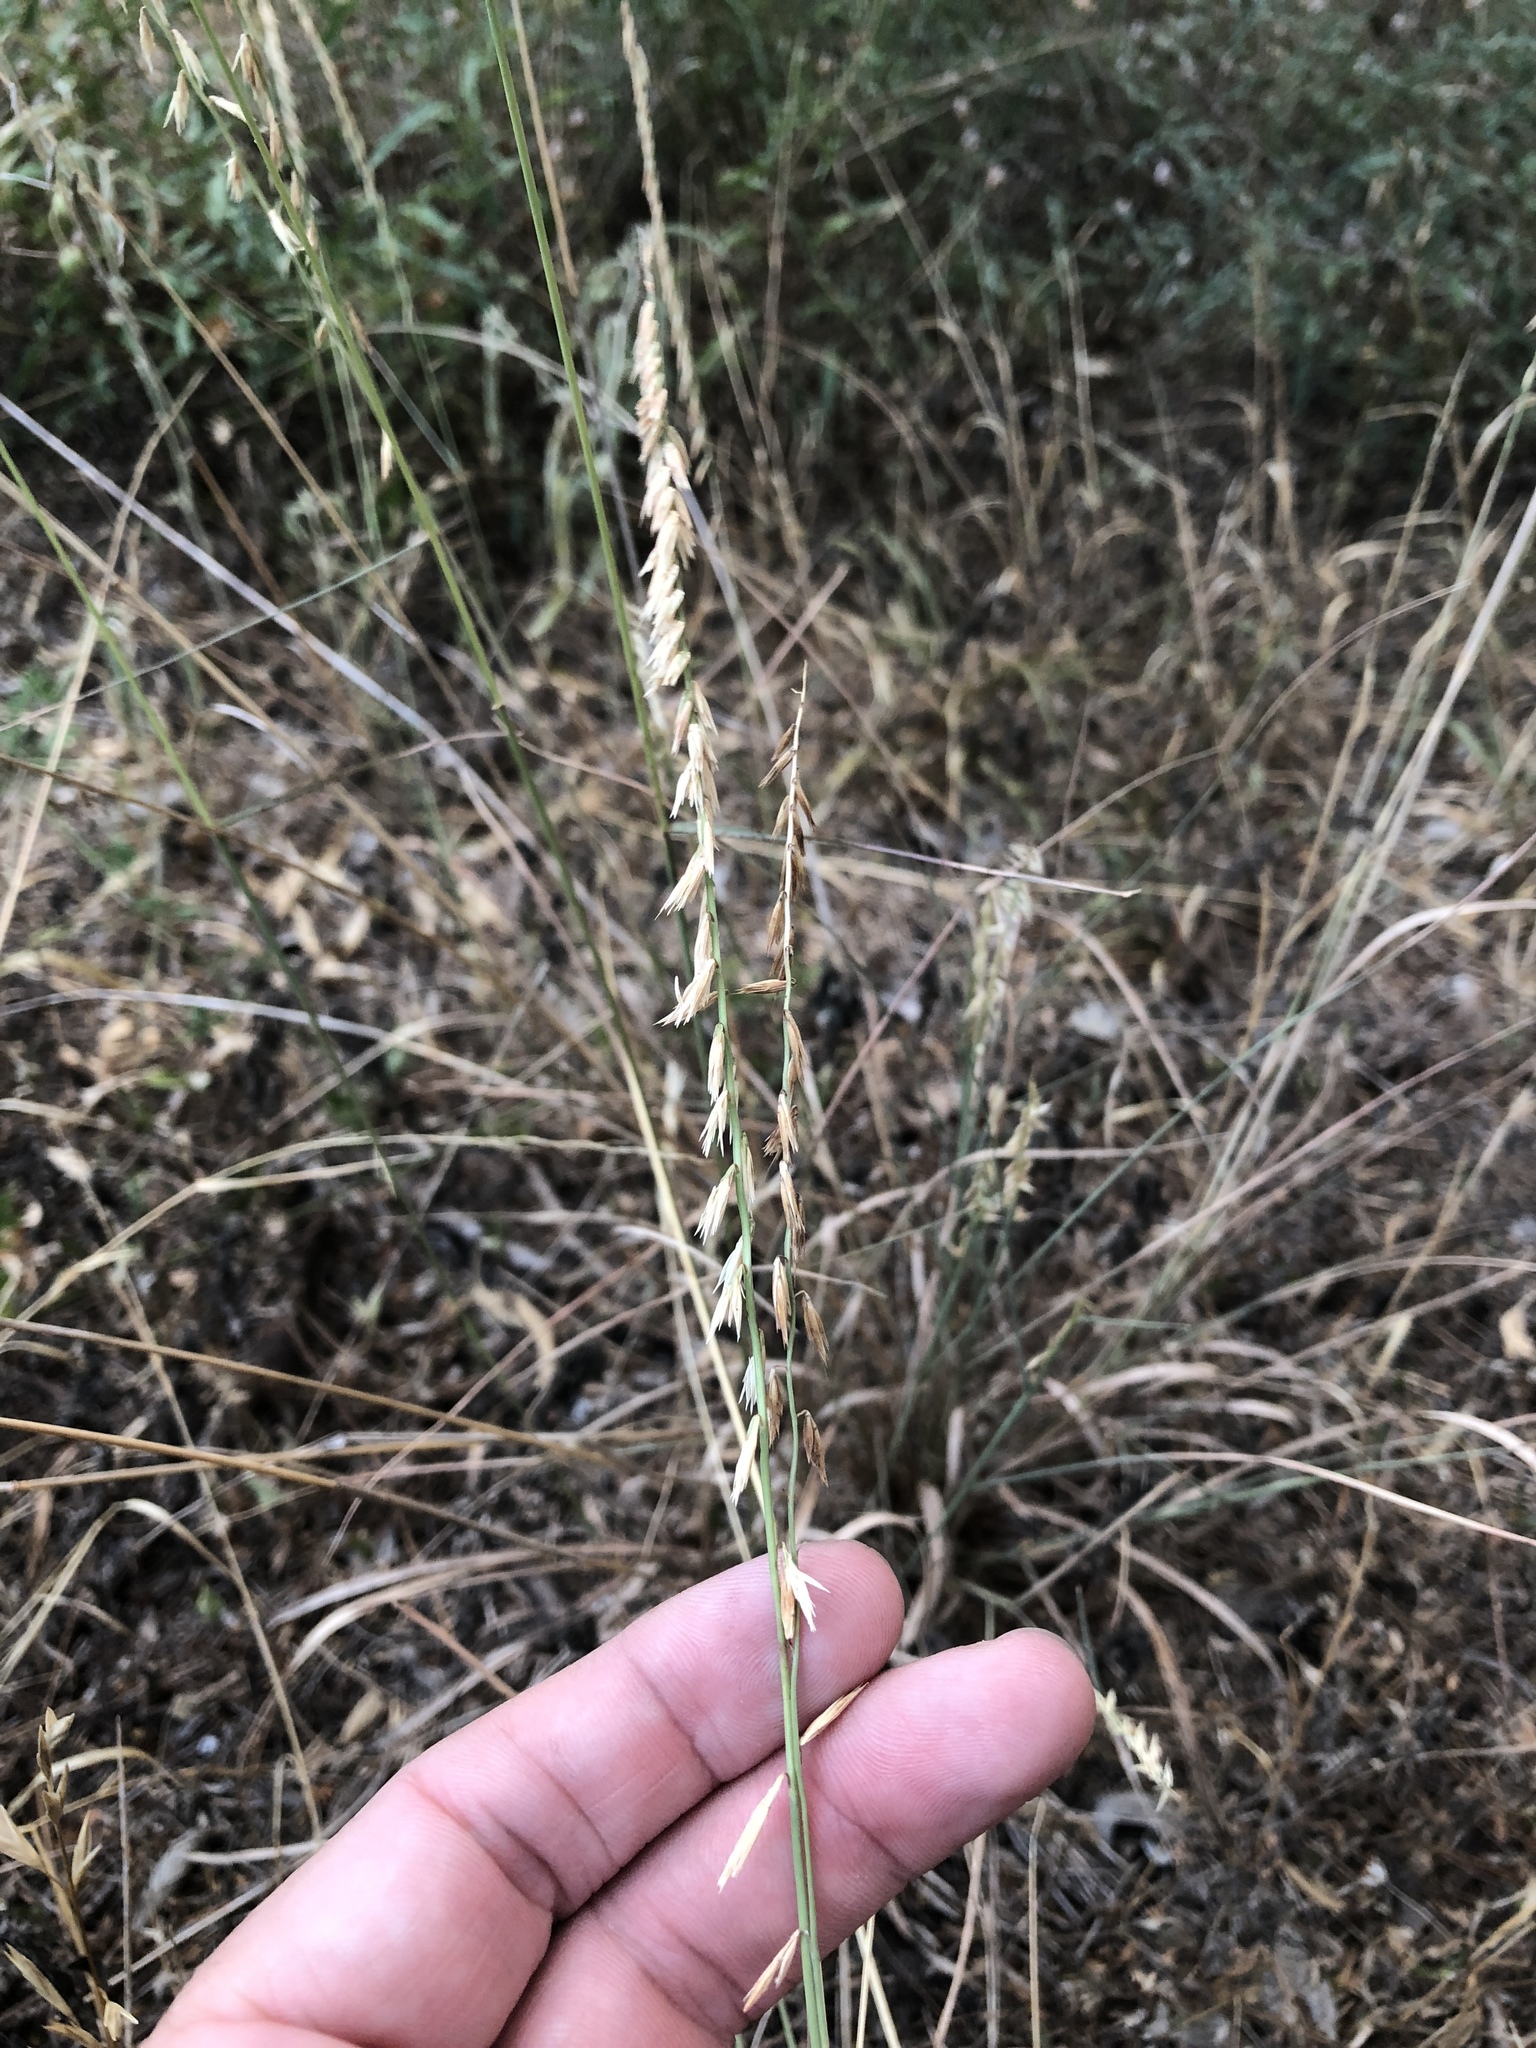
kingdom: Plantae
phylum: Tracheophyta
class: Liliopsida
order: Poales
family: Poaceae
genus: Bouteloua
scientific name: Bouteloua curtipendula
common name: Side-oats grama
